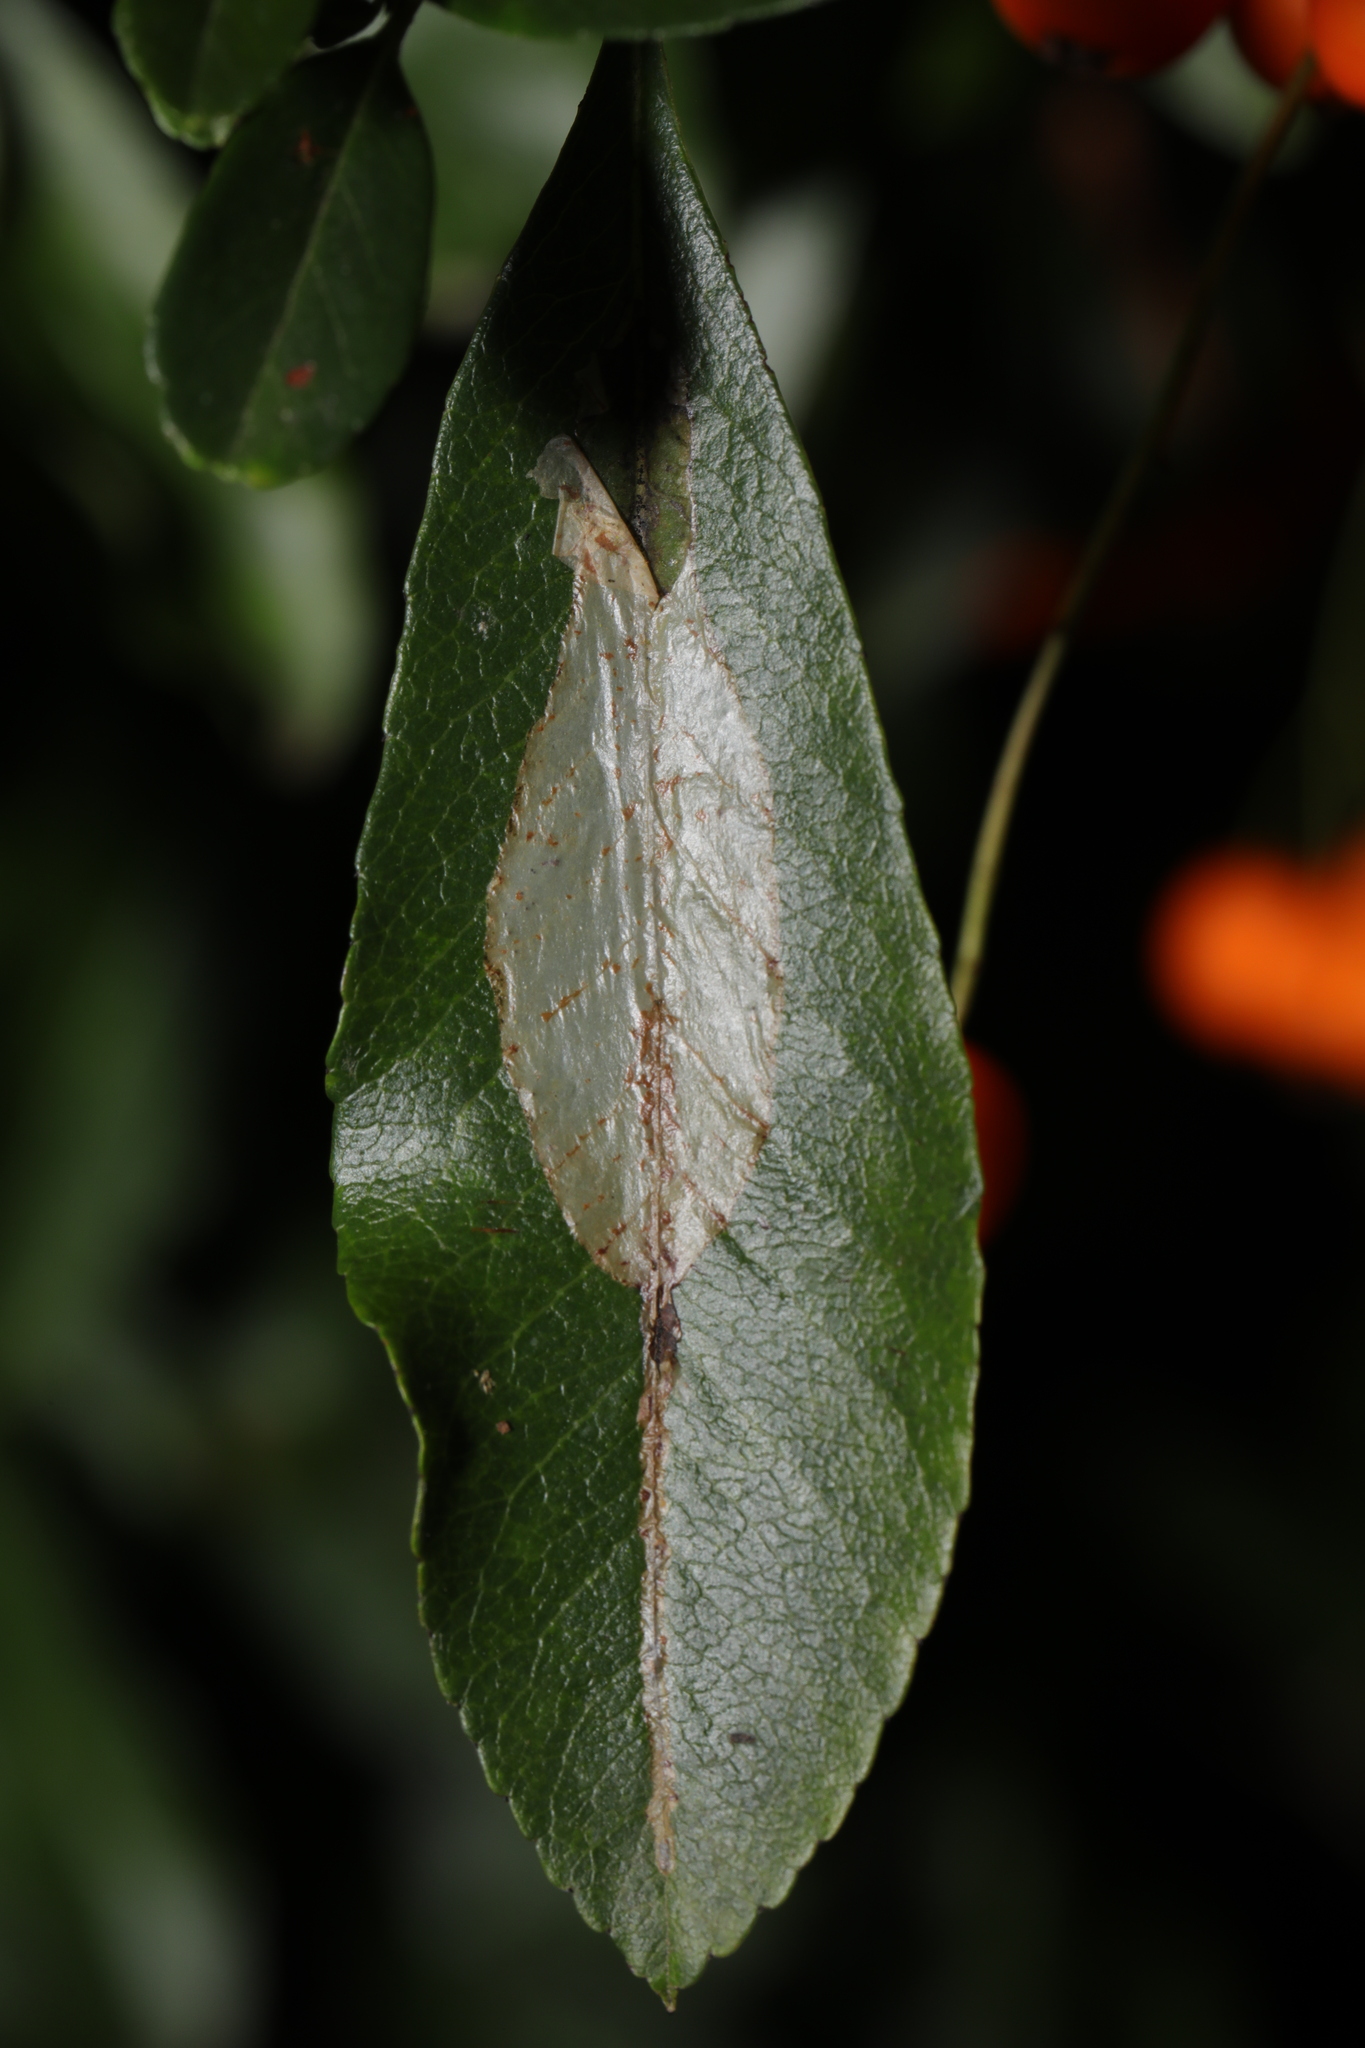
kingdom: Animalia
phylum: Arthropoda
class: Insecta
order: Lepidoptera
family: Gracillariidae
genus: Phyllonorycter
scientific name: Phyllonorycter leucographella
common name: Firethorn leaf-miner
